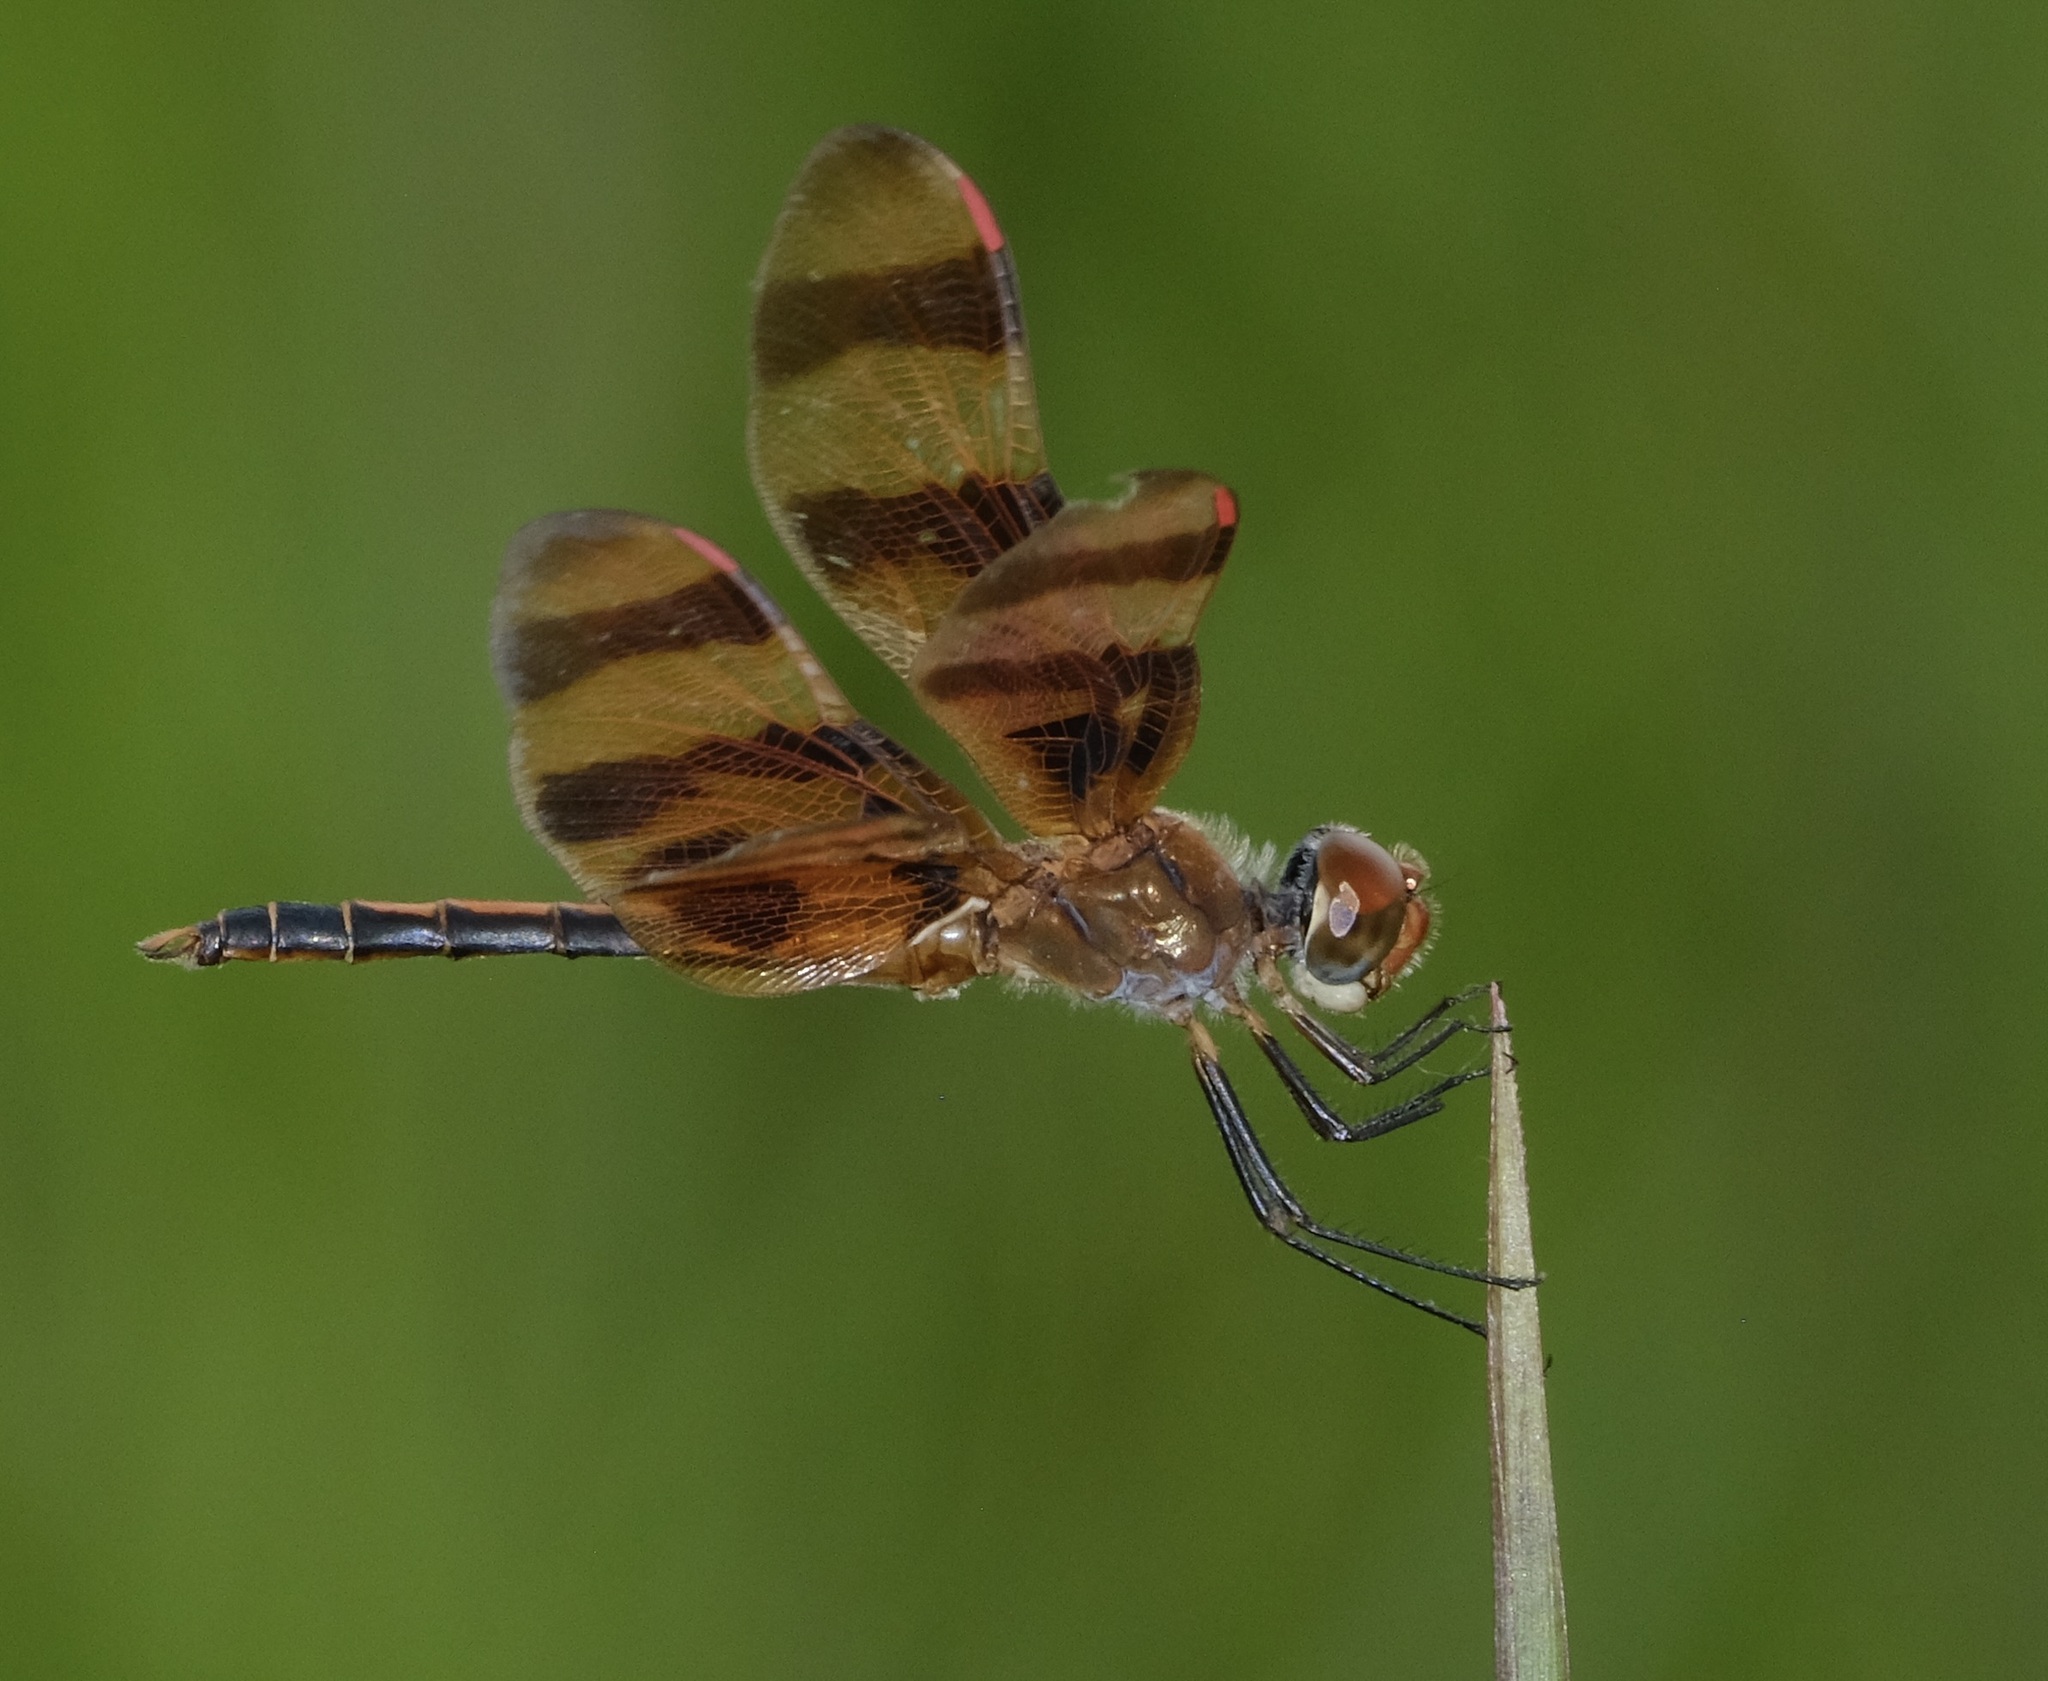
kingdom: Animalia
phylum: Arthropoda
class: Insecta
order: Odonata
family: Libellulidae
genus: Celithemis
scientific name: Celithemis eponina
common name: Halloween pennant
